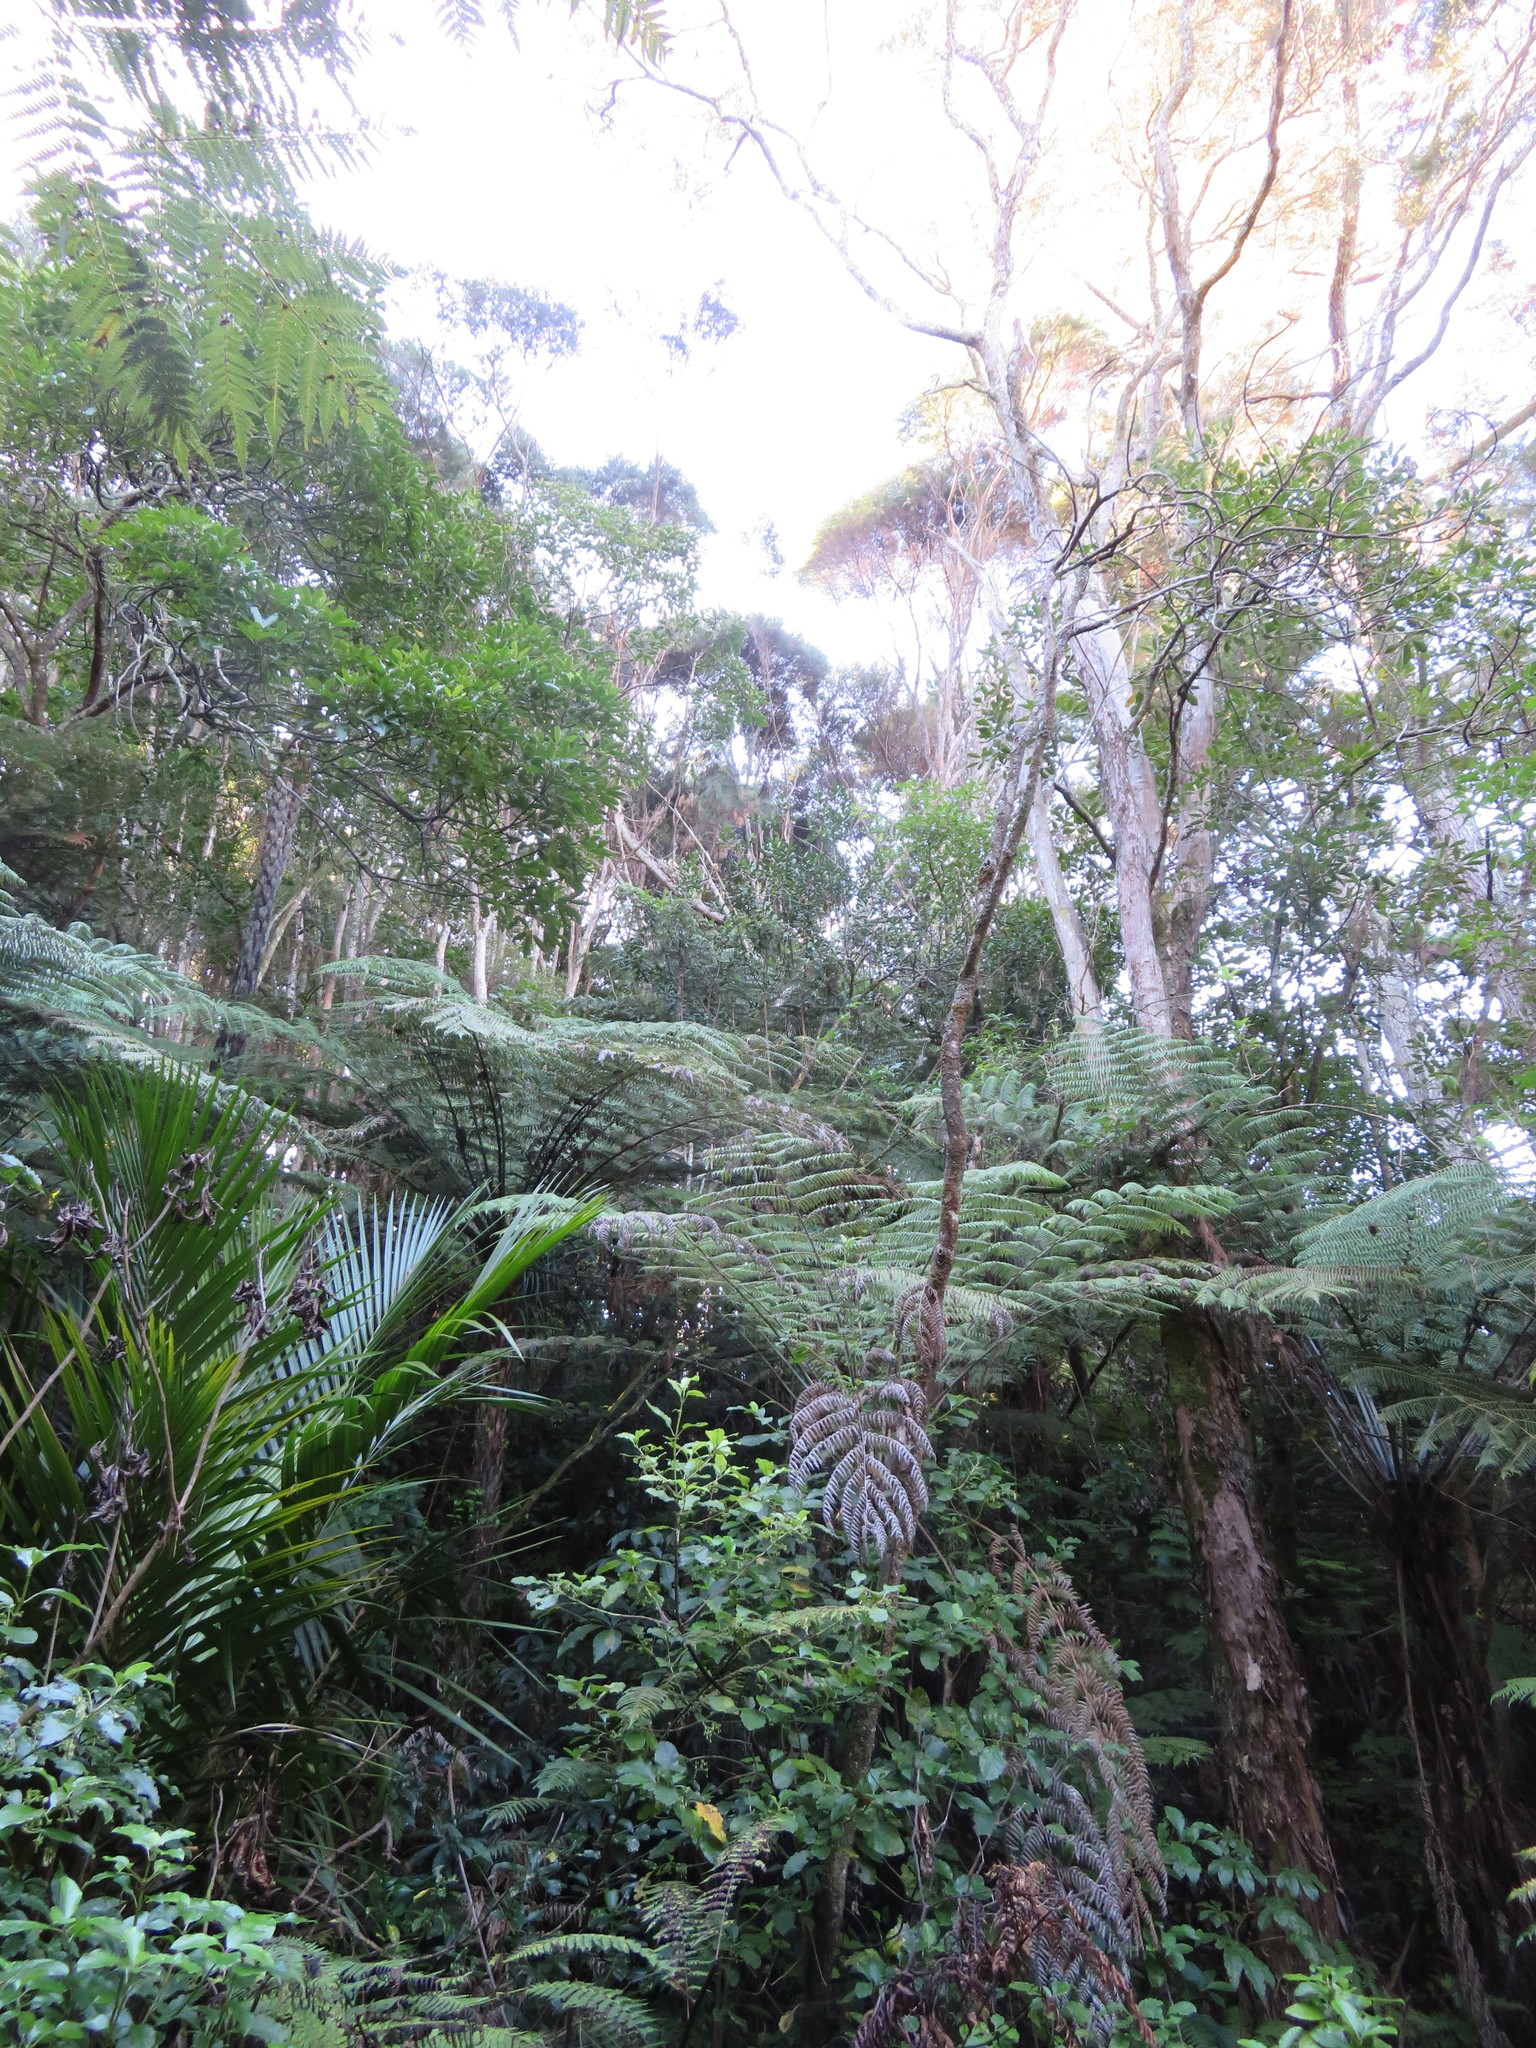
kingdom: Plantae
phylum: Tracheophyta
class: Liliopsida
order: Arecales
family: Arecaceae
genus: Rhopalostylis
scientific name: Rhopalostylis sapida
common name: Feather-duster palm
